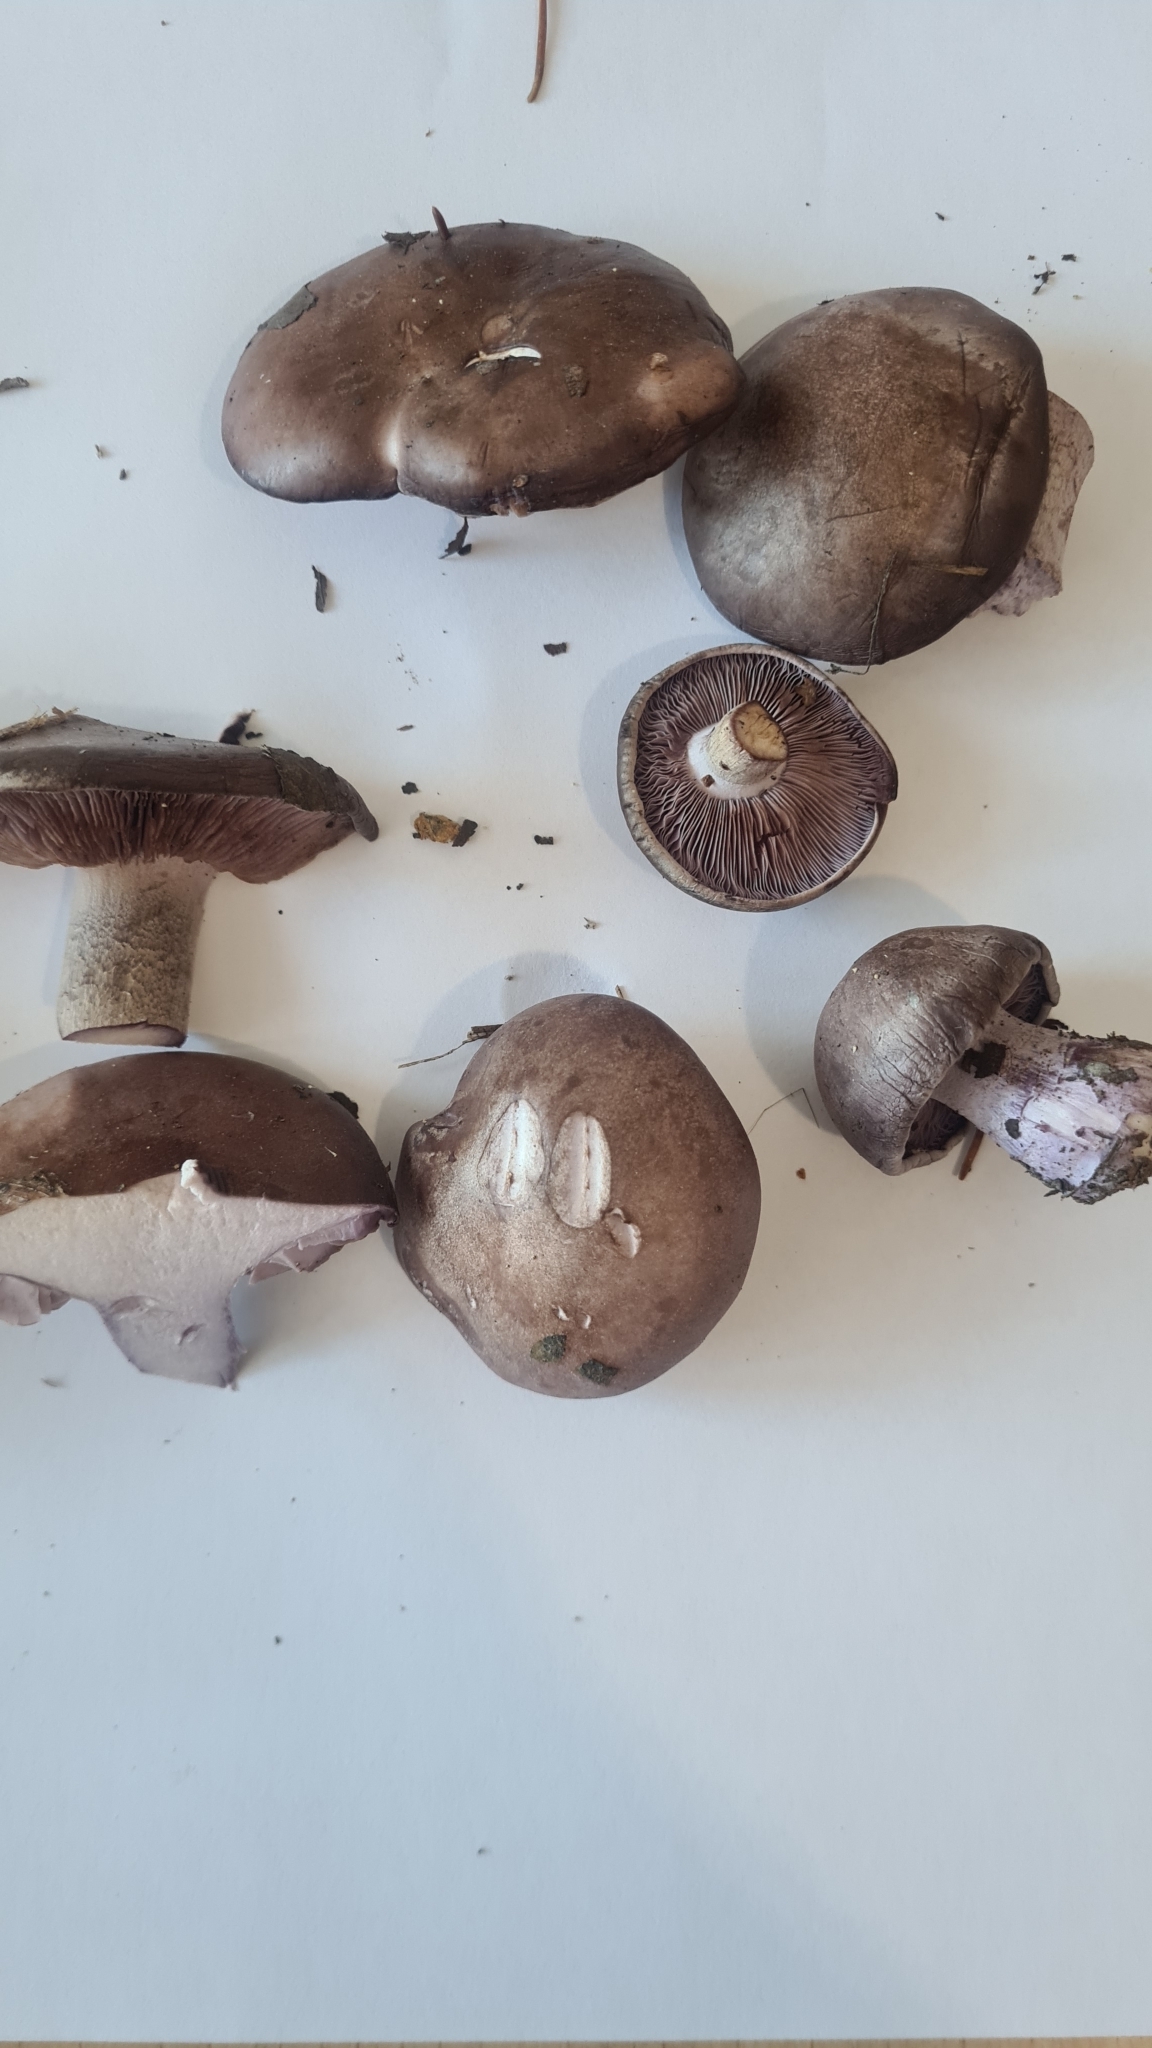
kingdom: Fungi
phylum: Basidiomycota
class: Agaricomycetes
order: Agaricales
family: Tricholomataceae
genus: Collybia
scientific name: Collybia
